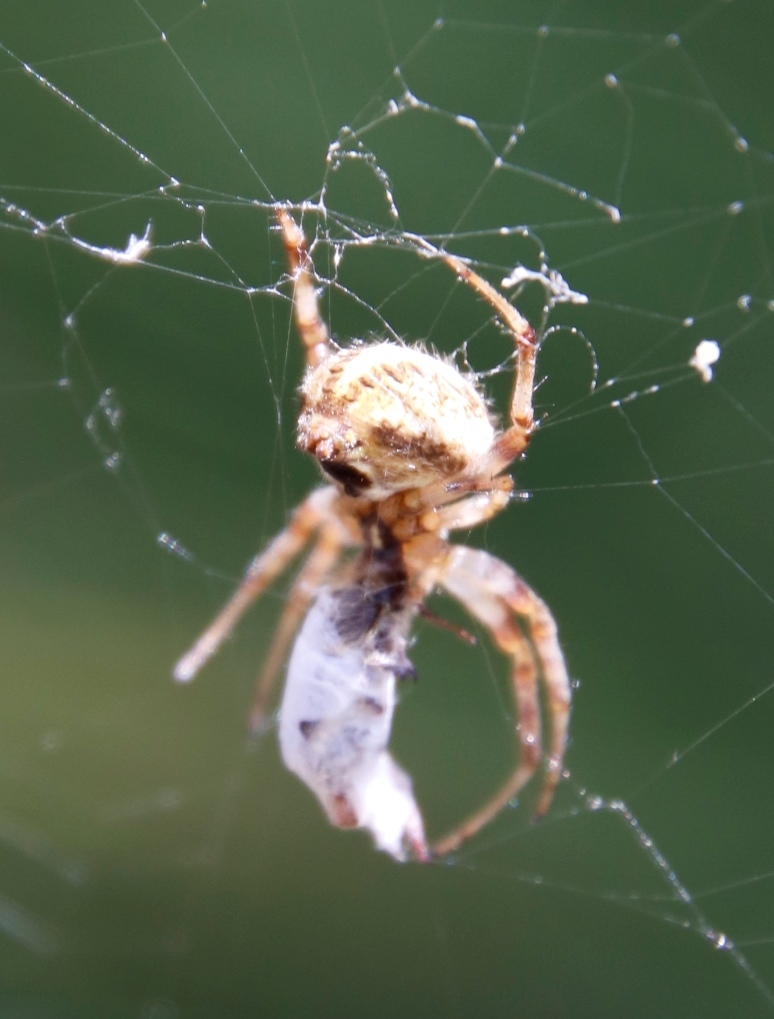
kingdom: Animalia
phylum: Arthropoda
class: Arachnida
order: Araneae
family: Araneidae
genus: Neoscona
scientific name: Neoscona moreli
